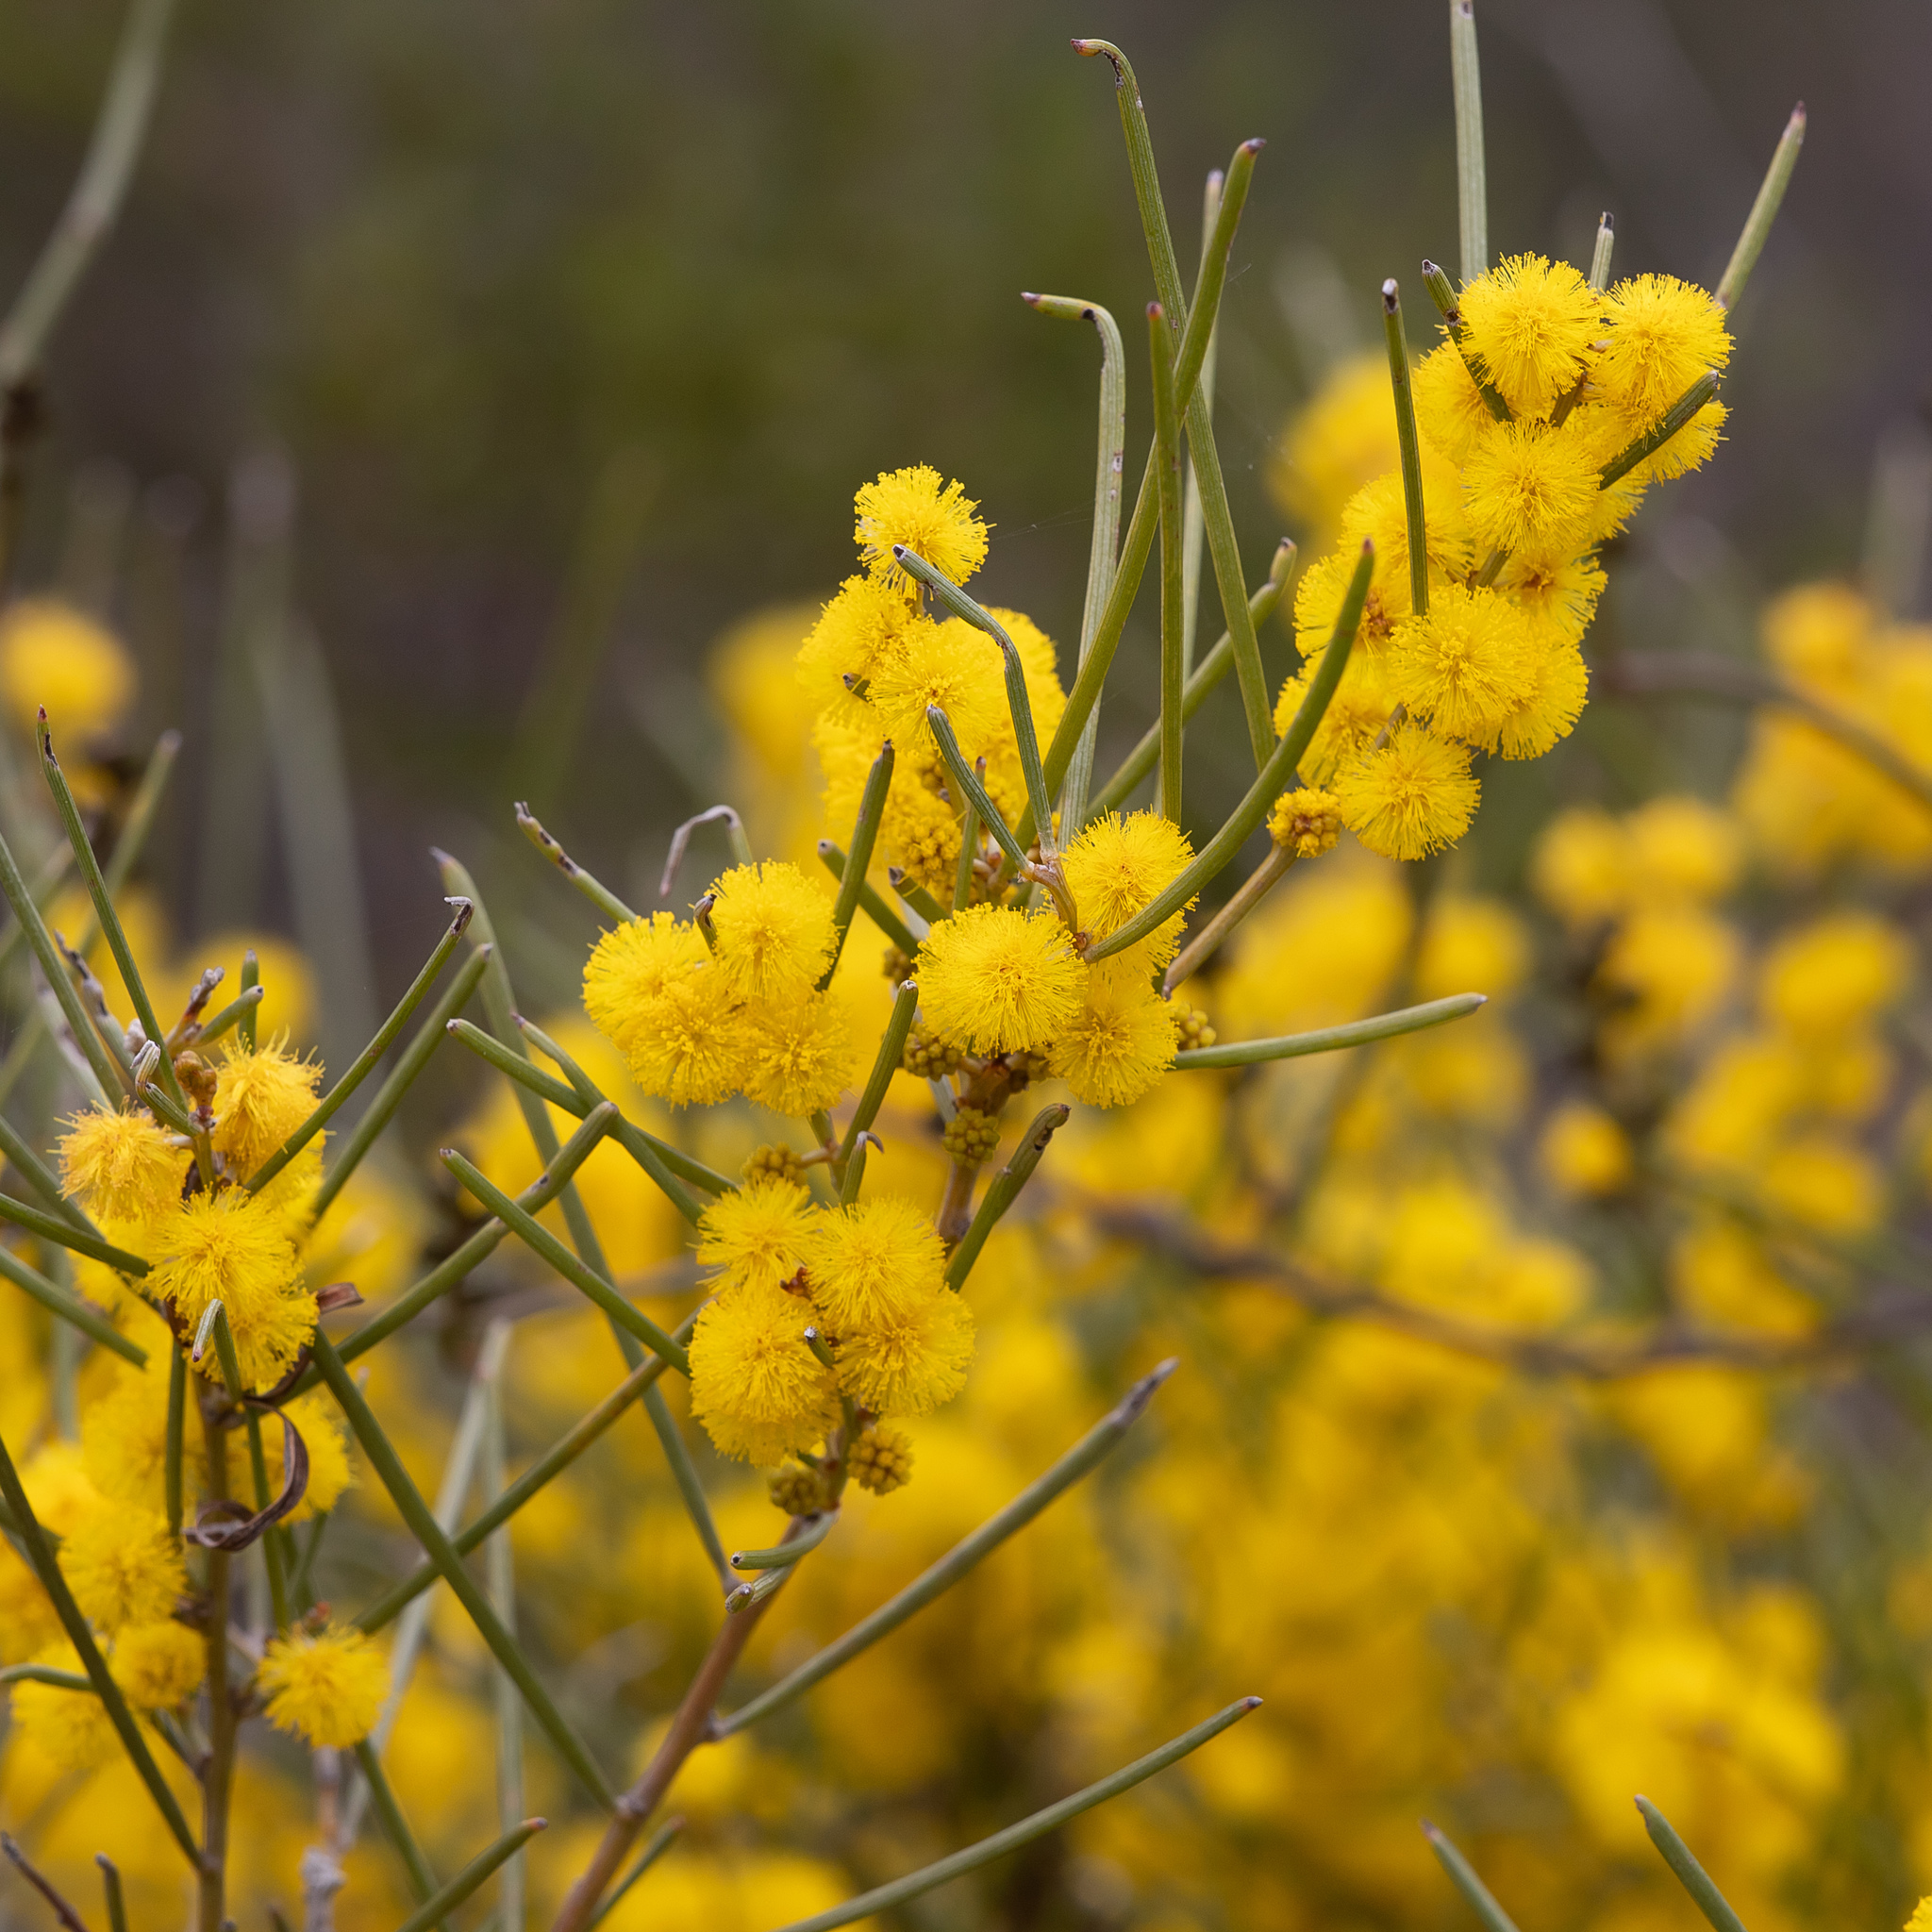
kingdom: Plantae
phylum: Tracheophyta
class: Magnoliopsida
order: Fabales
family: Fabaceae
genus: Acacia
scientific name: Acacia rigens
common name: Nealie
